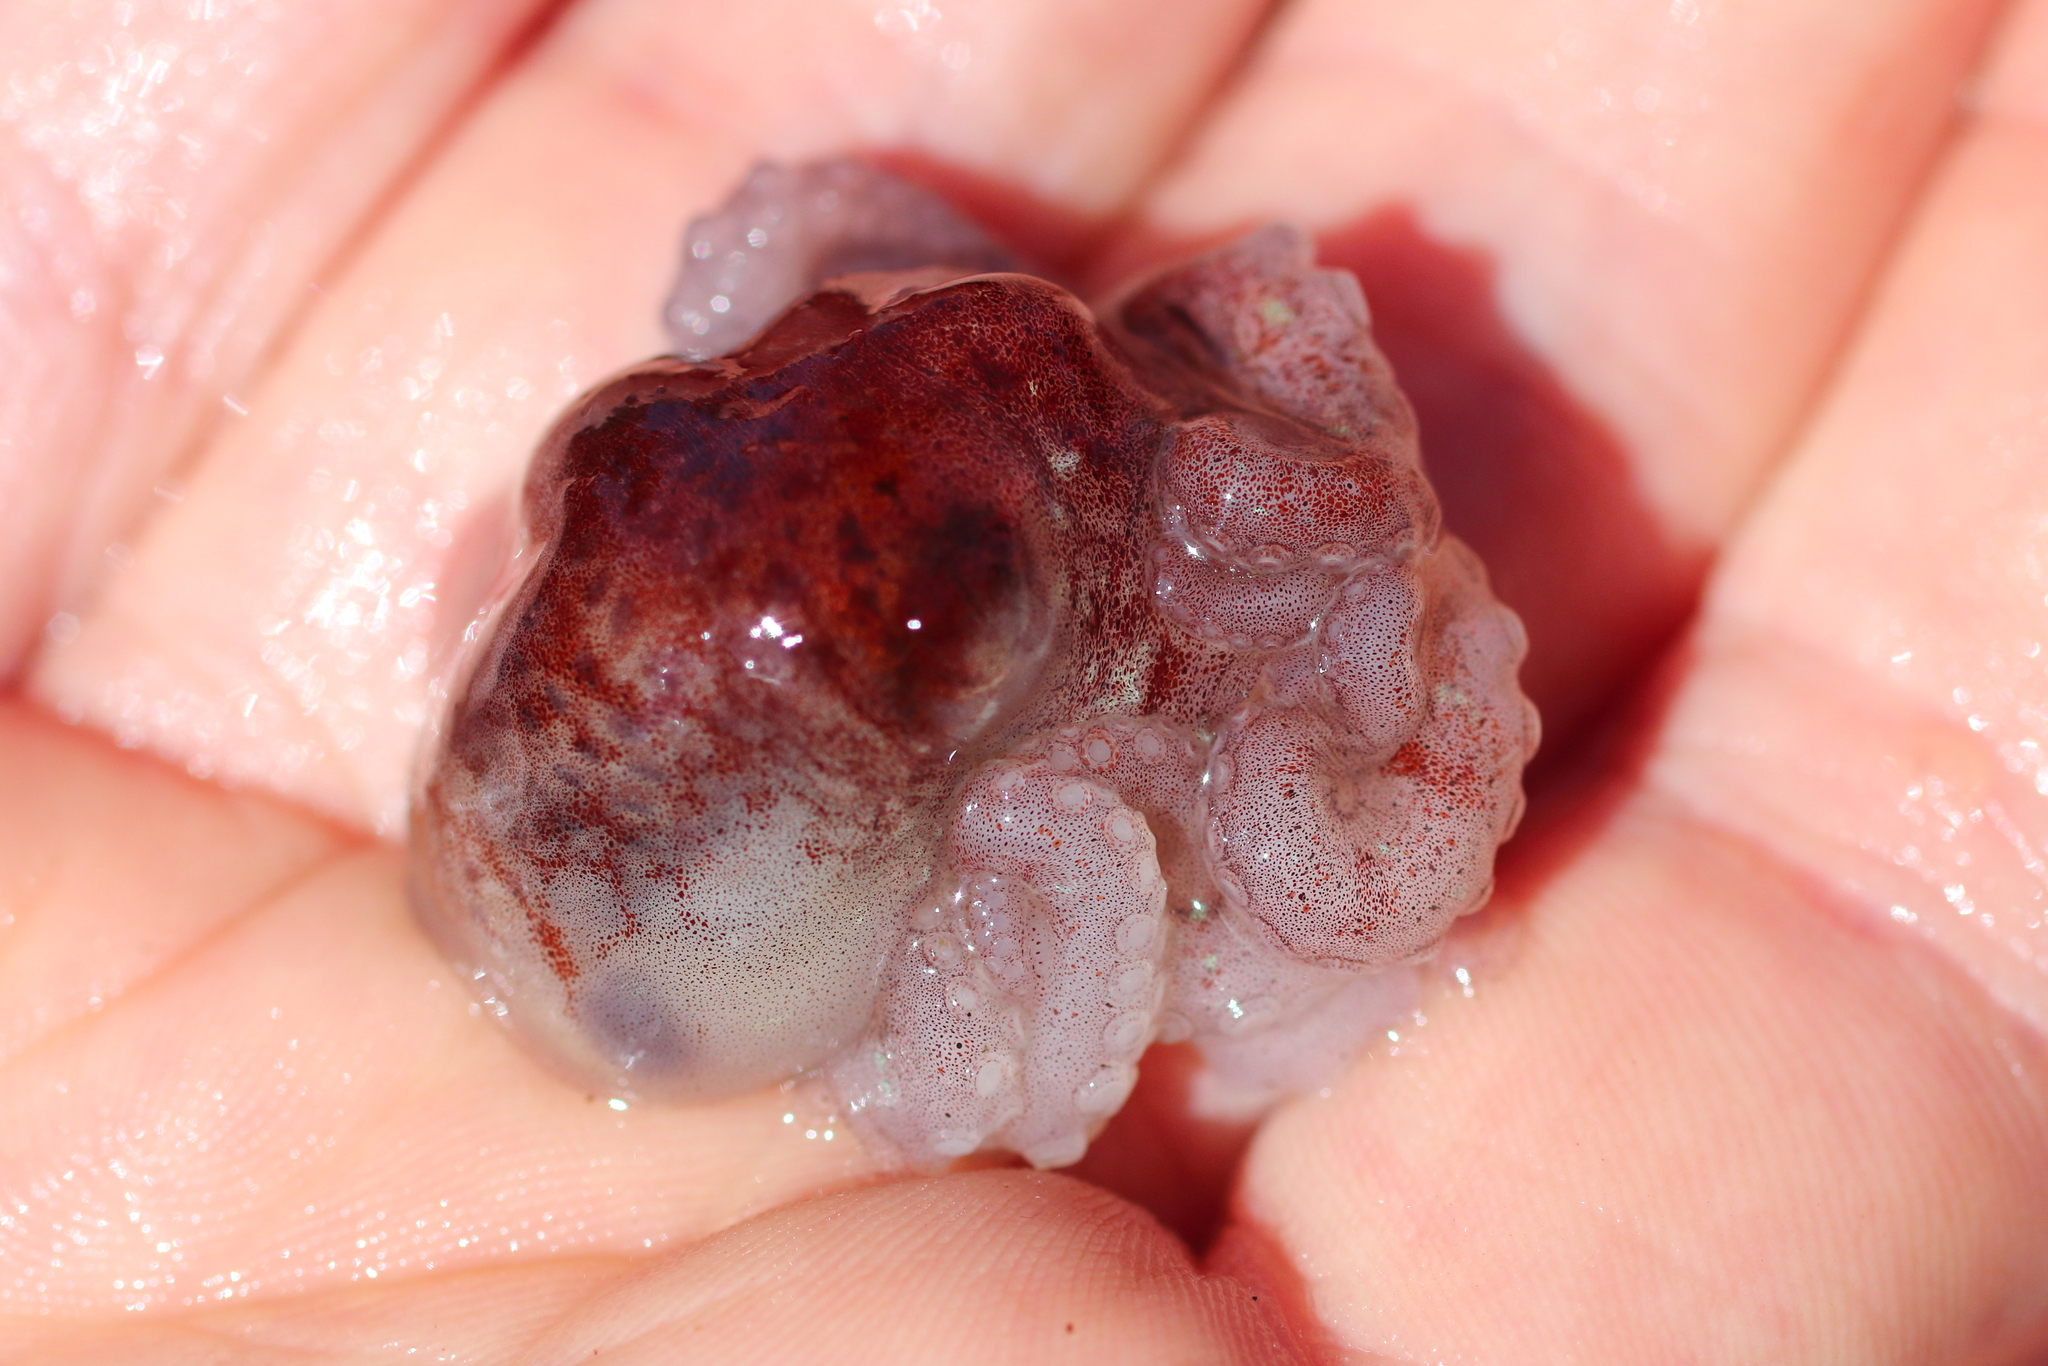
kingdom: Animalia
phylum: Mollusca
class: Cephalopoda
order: Octopoda
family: Enteroctopodidae
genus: Enteroctopus
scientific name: Enteroctopus dofleini
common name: Giant north pacific octopus
